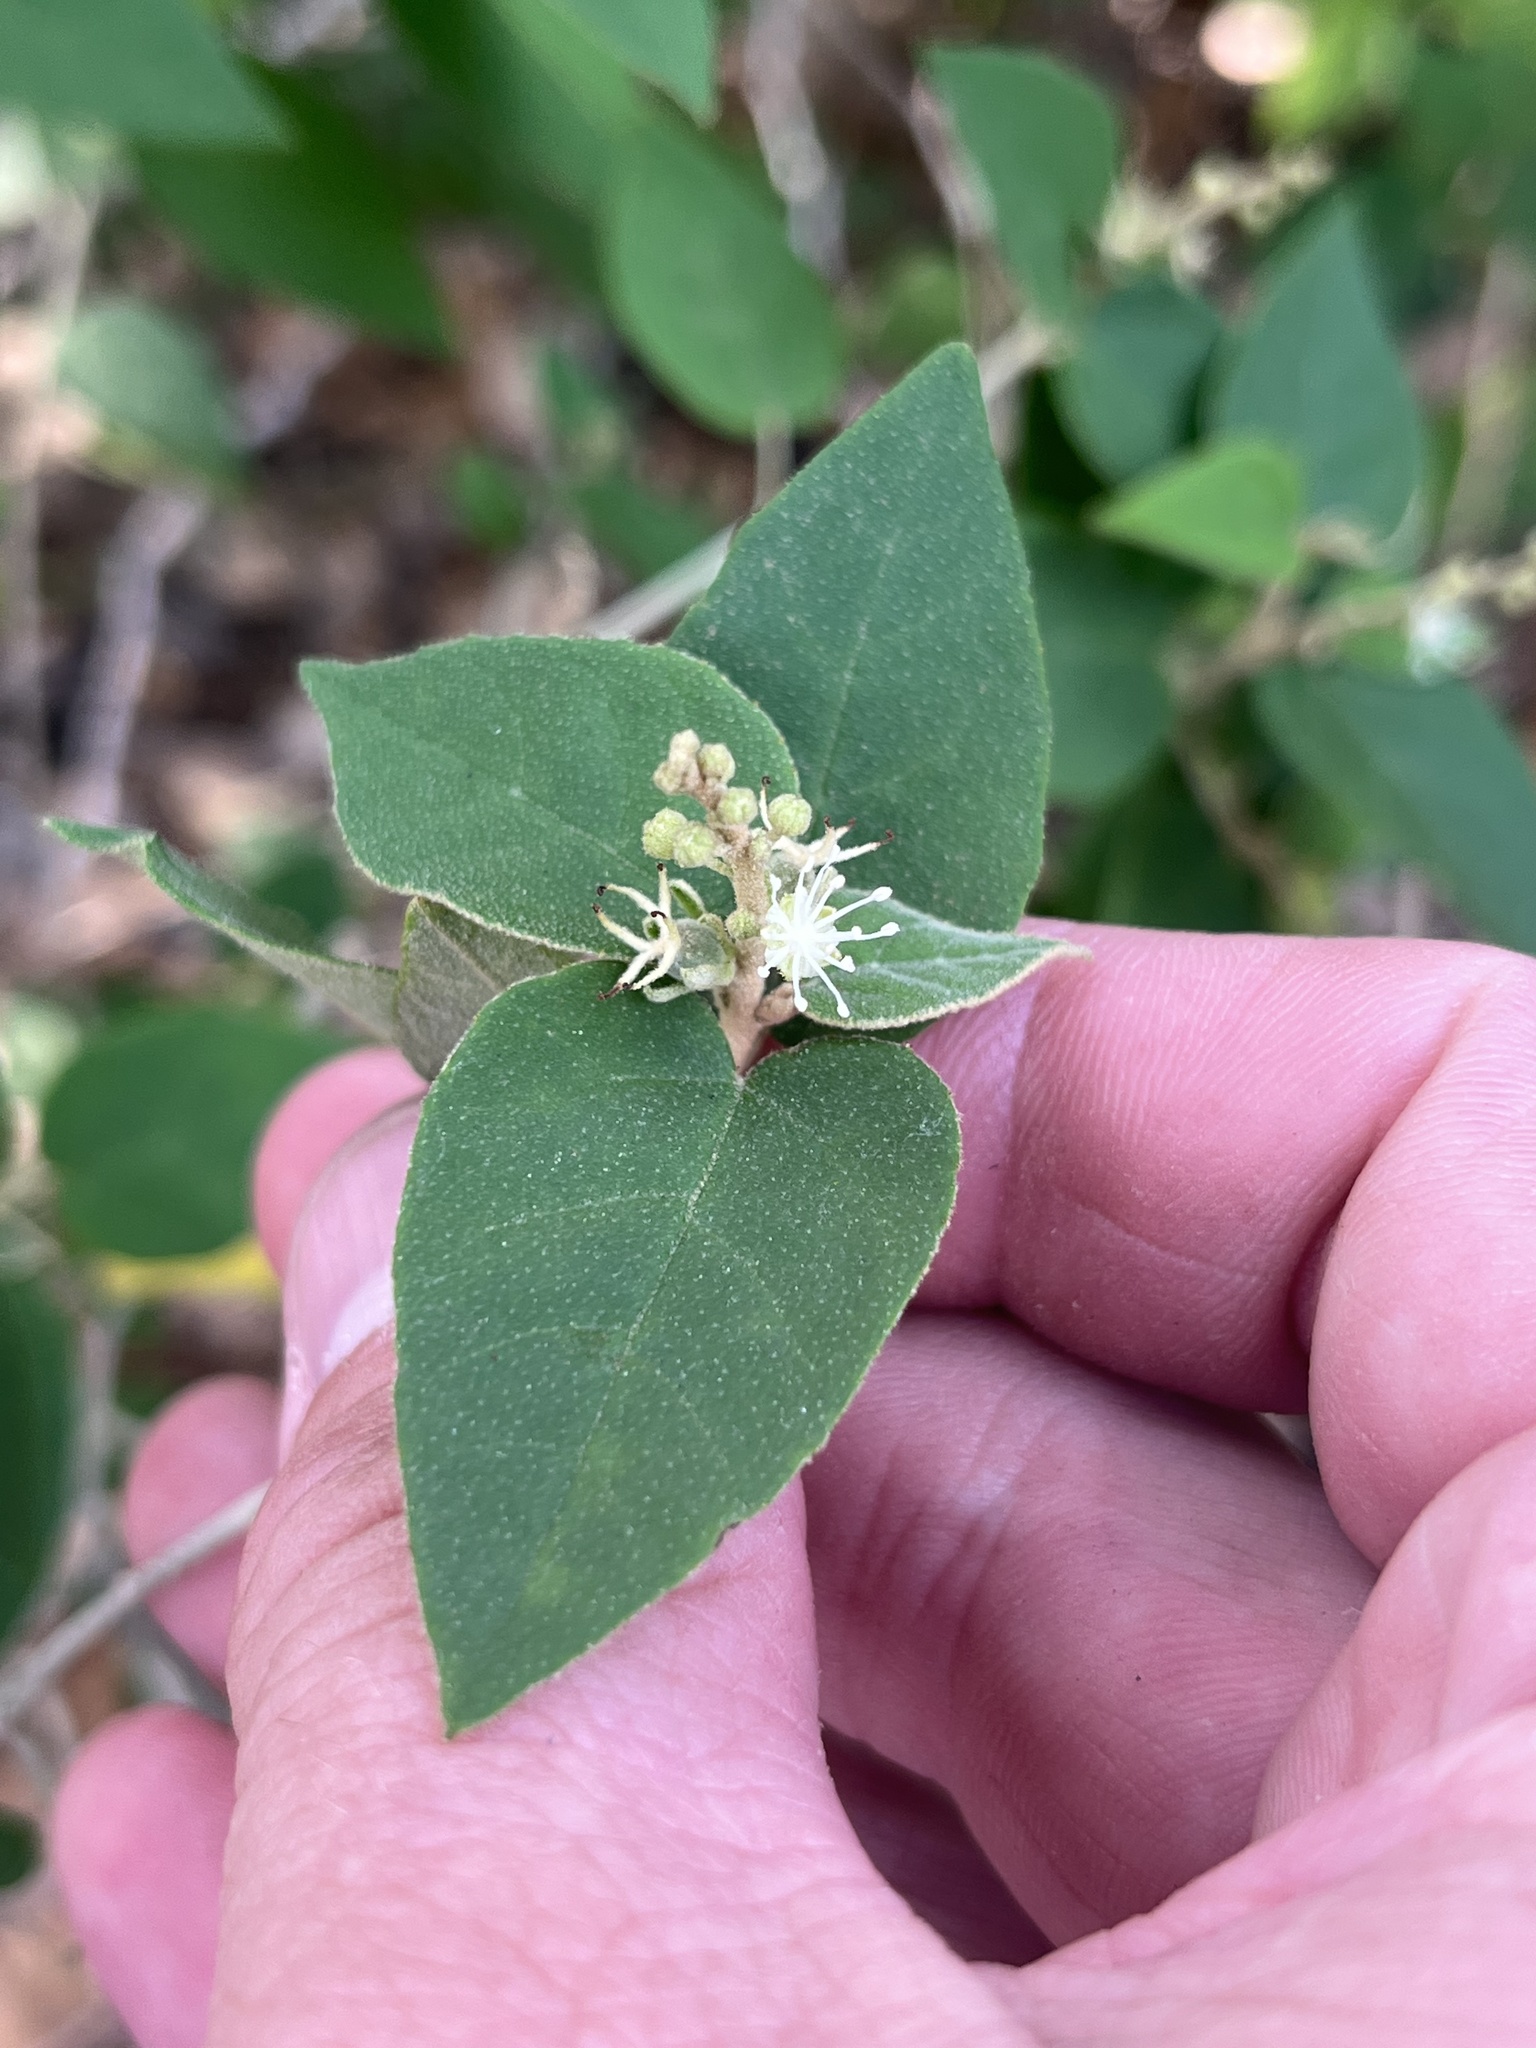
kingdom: Plantae
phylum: Tracheophyta
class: Magnoliopsida
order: Malpighiales
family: Euphorbiaceae
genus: Croton
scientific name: Croton fruticulosus
